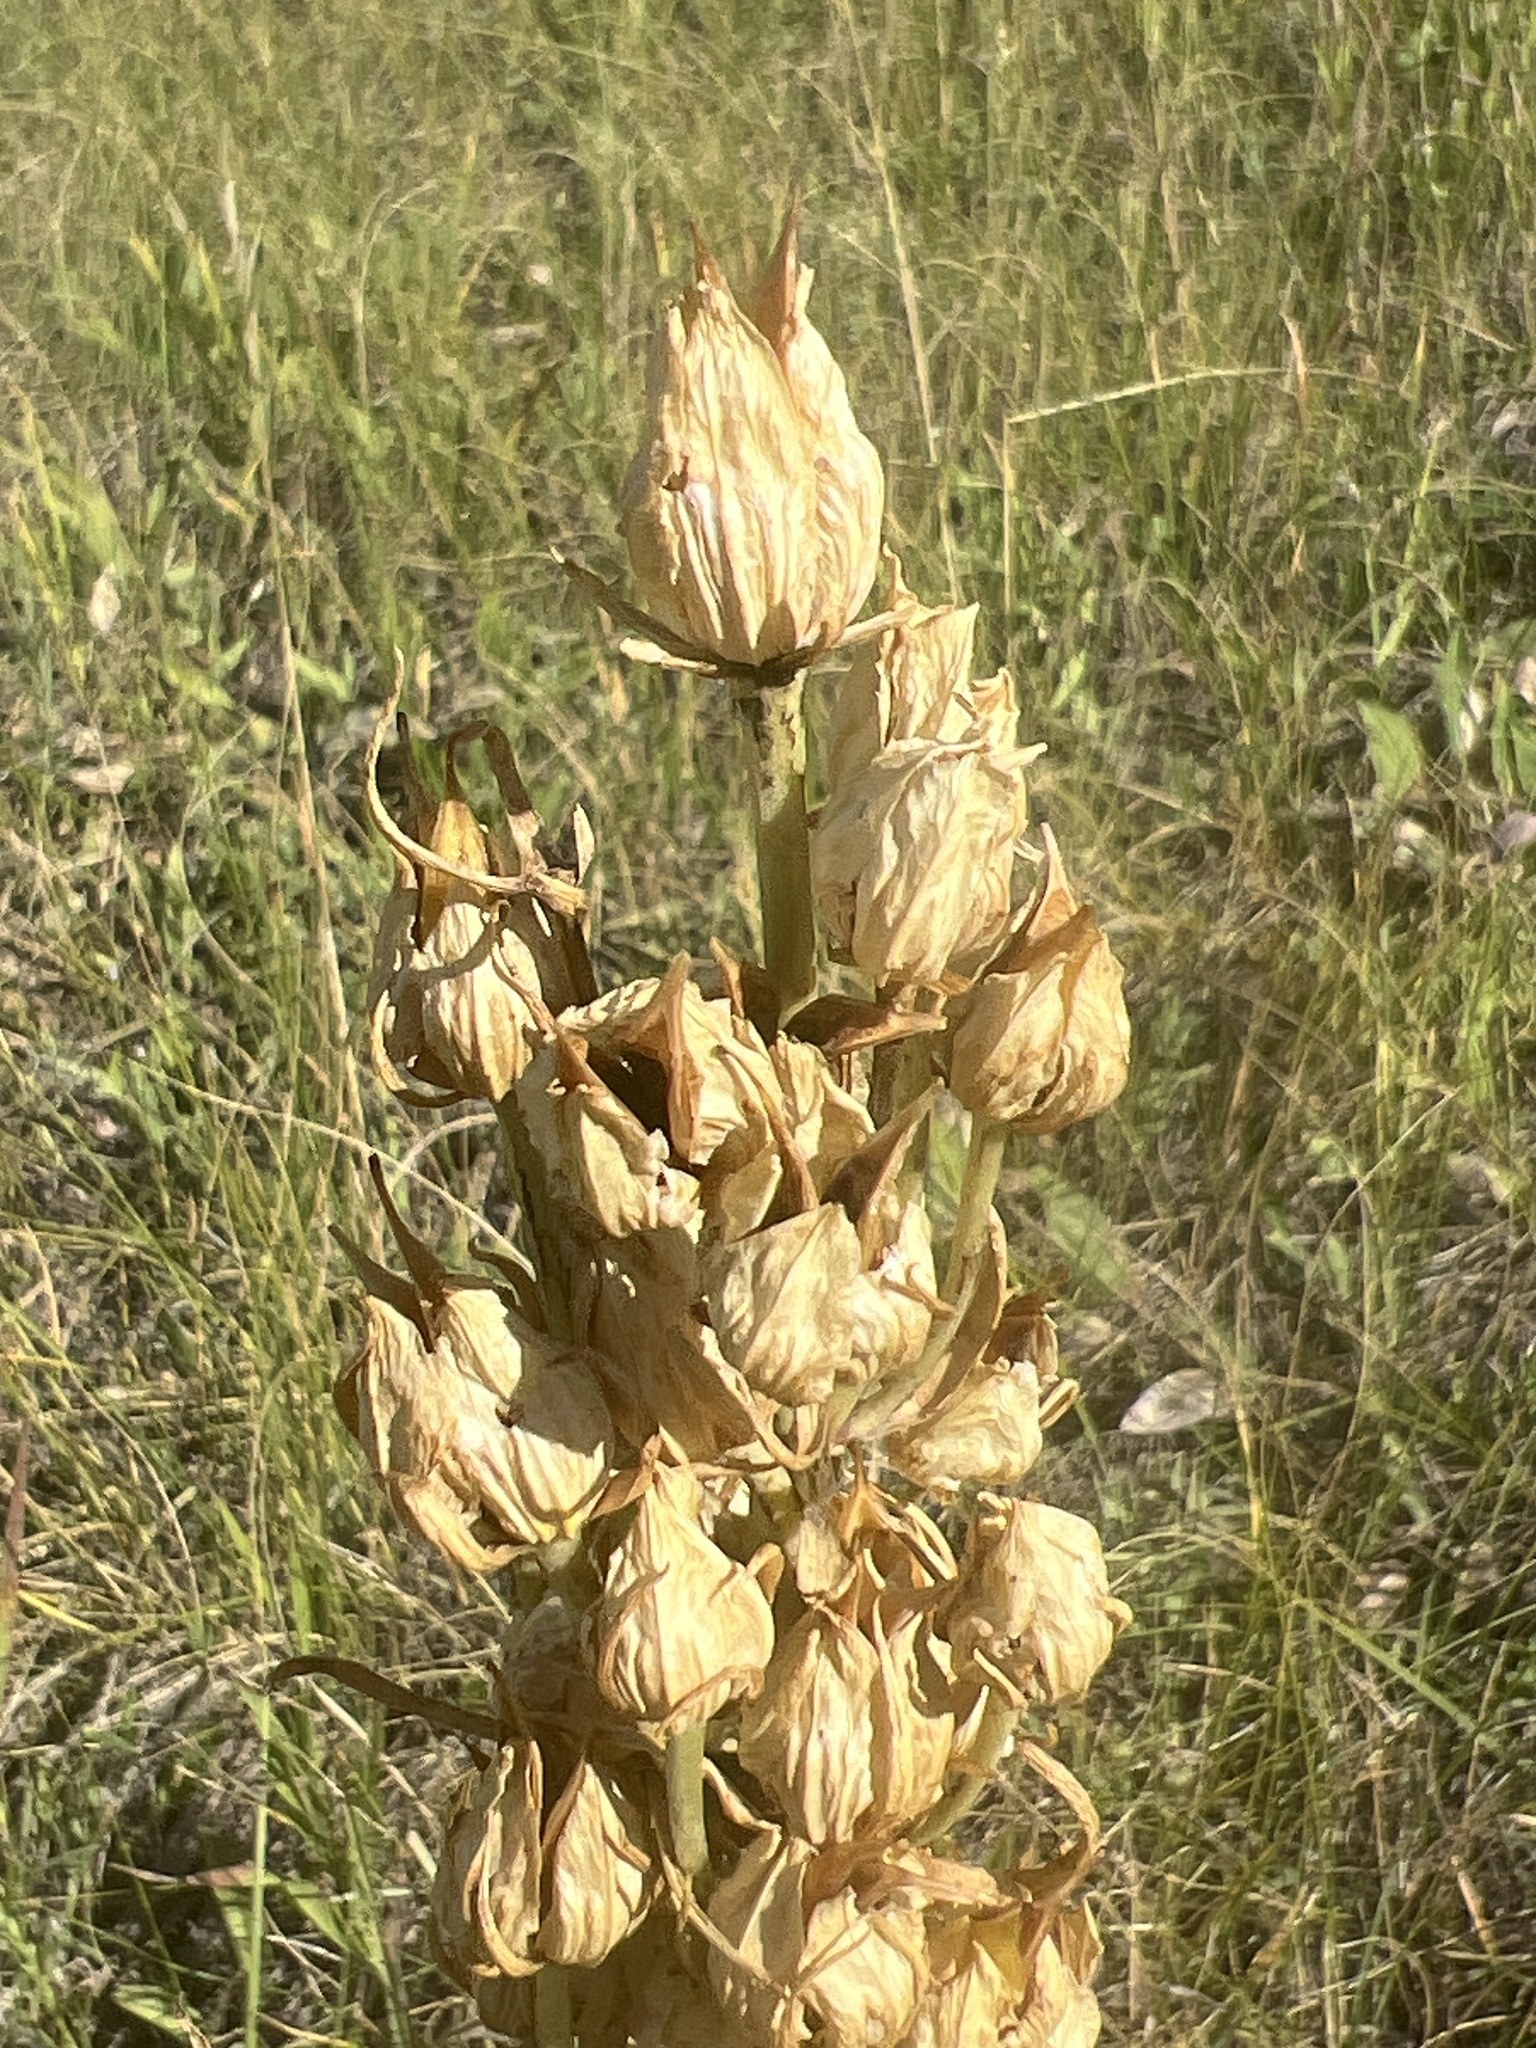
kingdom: Plantae
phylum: Tracheophyta
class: Magnoliopsida
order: Gentianales
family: Gentianaceae
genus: Frasera
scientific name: Frasera speciosa
